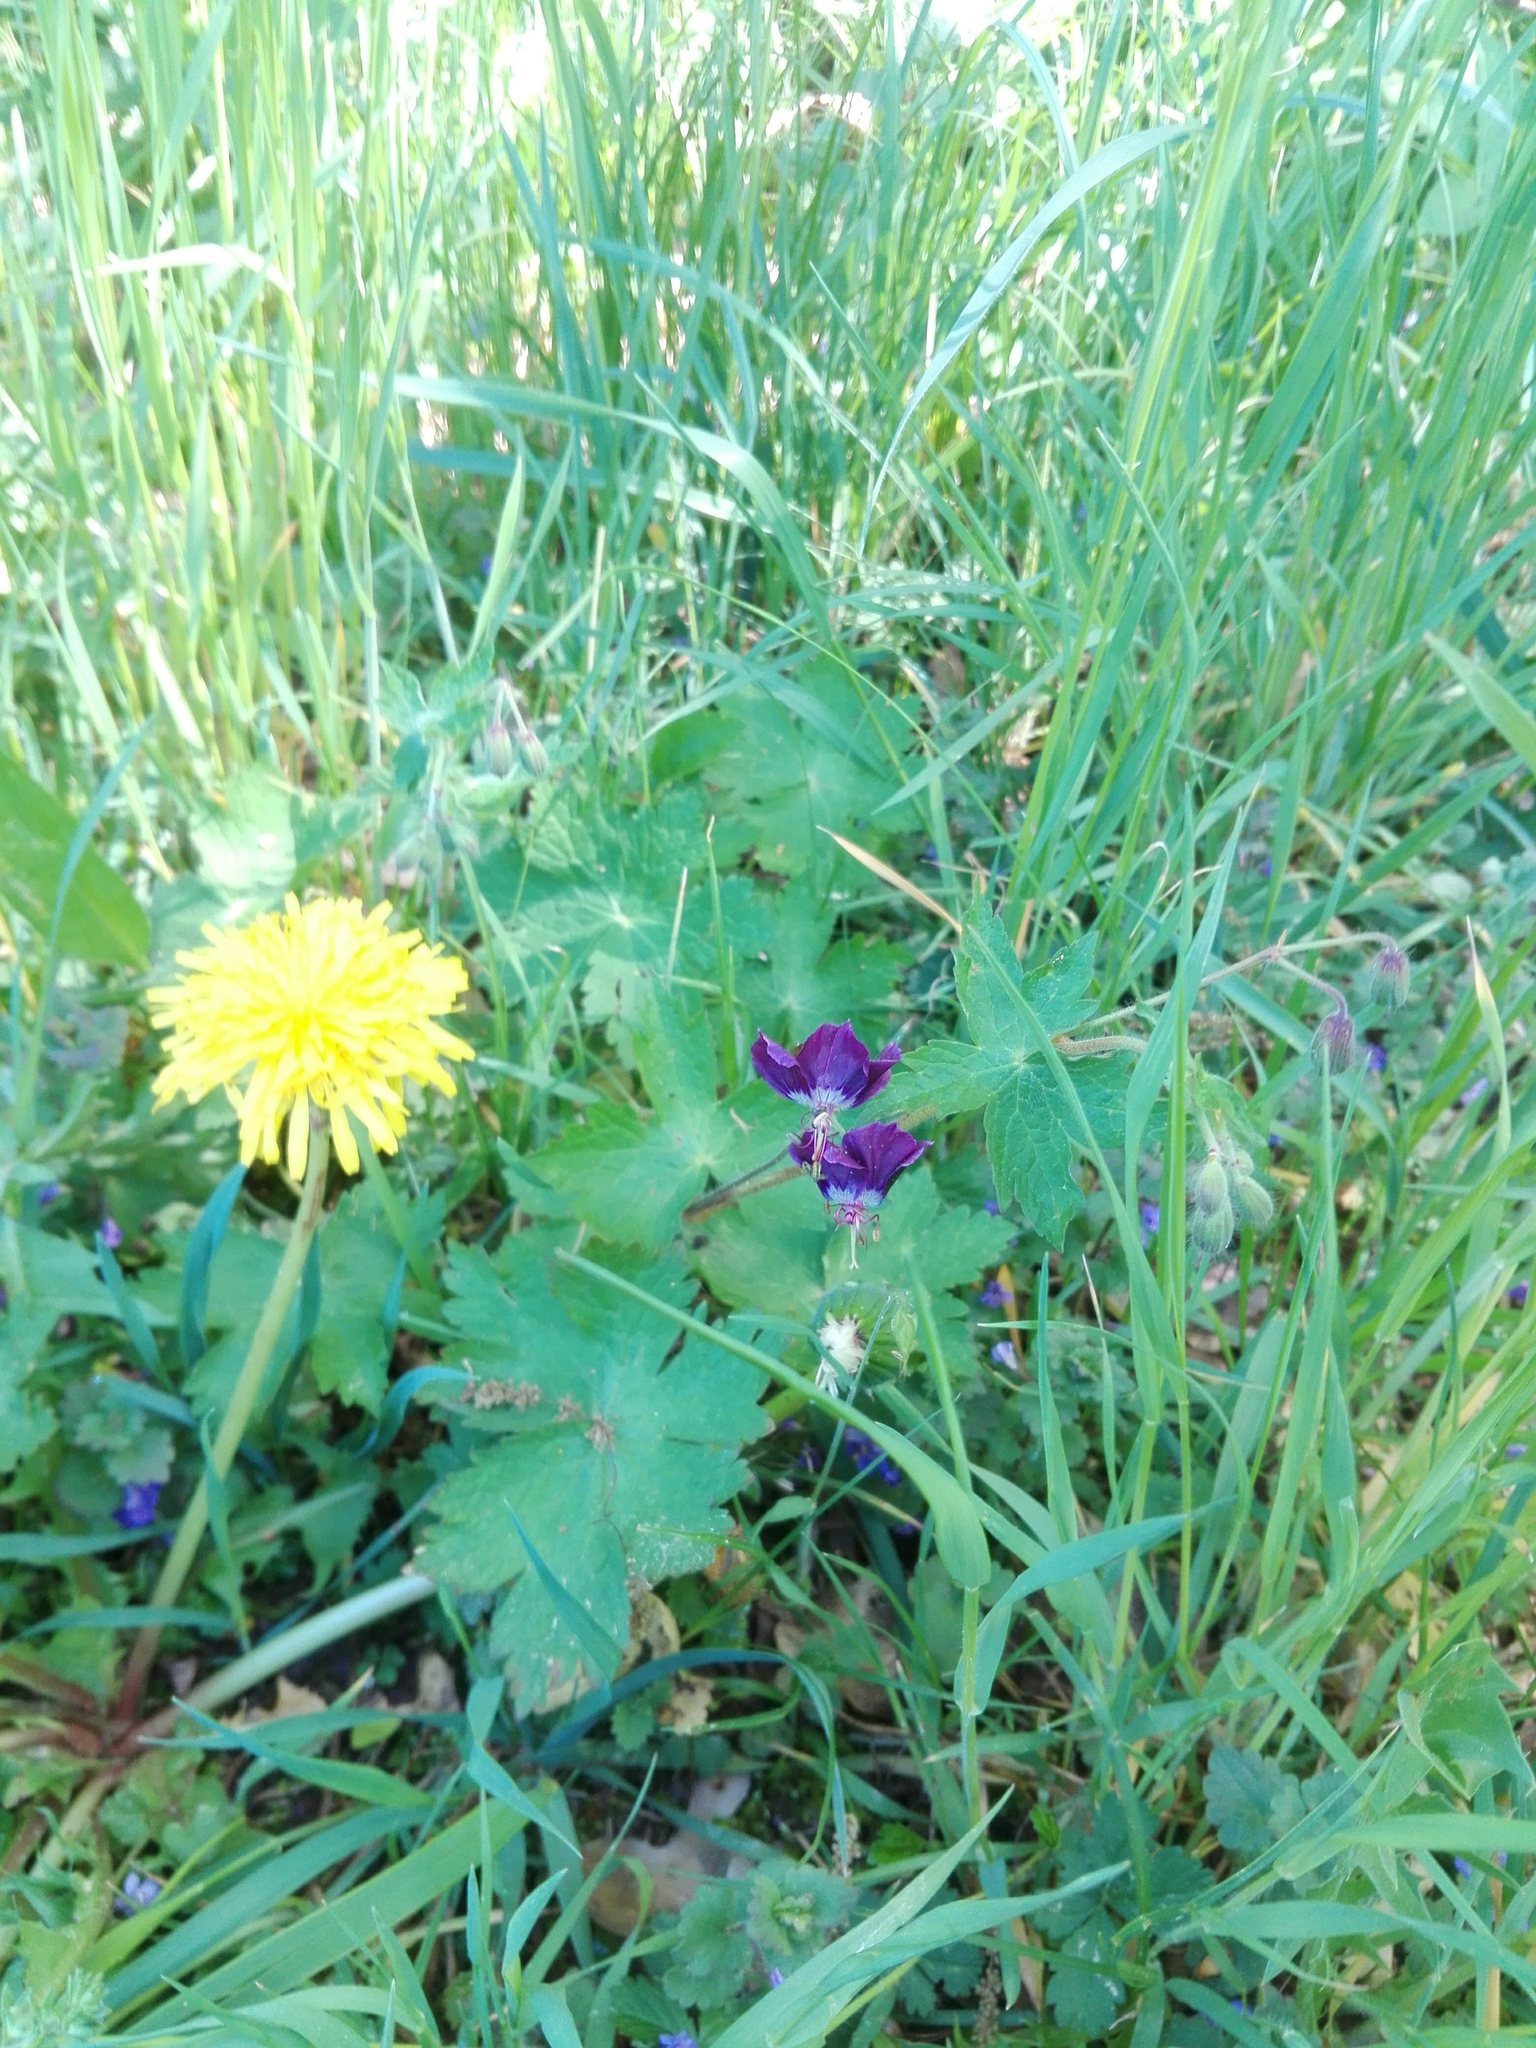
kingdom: Plantae
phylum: Tracheophyta
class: Magnoliopsida
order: Geraniales
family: Geraniaceae
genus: Geranium
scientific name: Geranium phaeum
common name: Dusky crane's-bill
